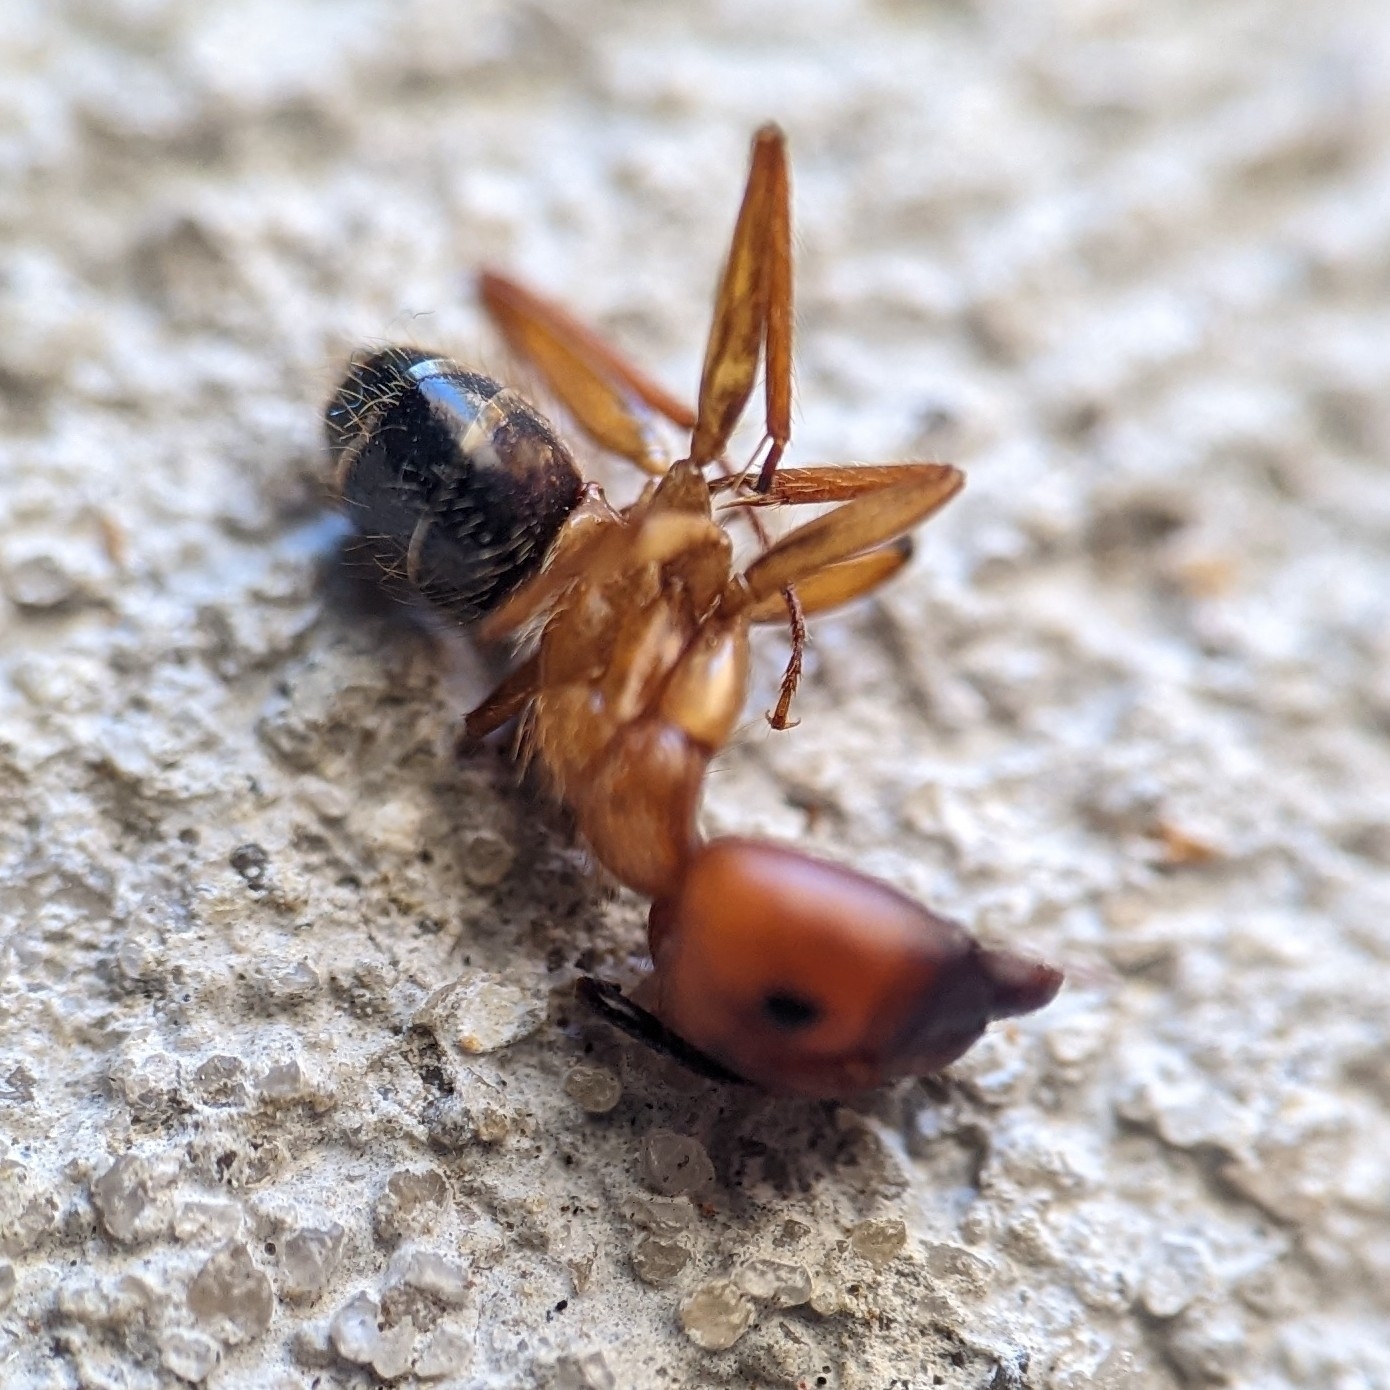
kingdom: Animalia
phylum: Arthropoda
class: Insecta
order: Hymenoptera
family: Formicidae
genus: Camponotus
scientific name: Camponotus floridanus
